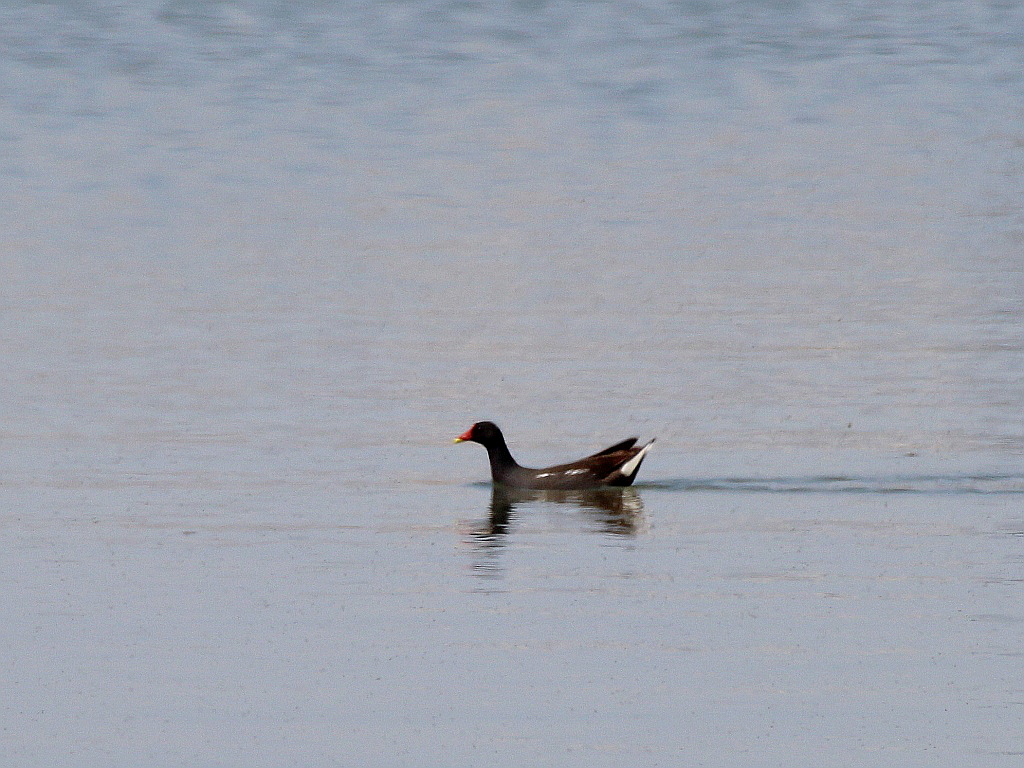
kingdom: Animalia
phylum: Chordata
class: Aves
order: Gruiformes
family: Rallidae
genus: Gallinula
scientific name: Gallinula chloropus
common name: Common moorhen
